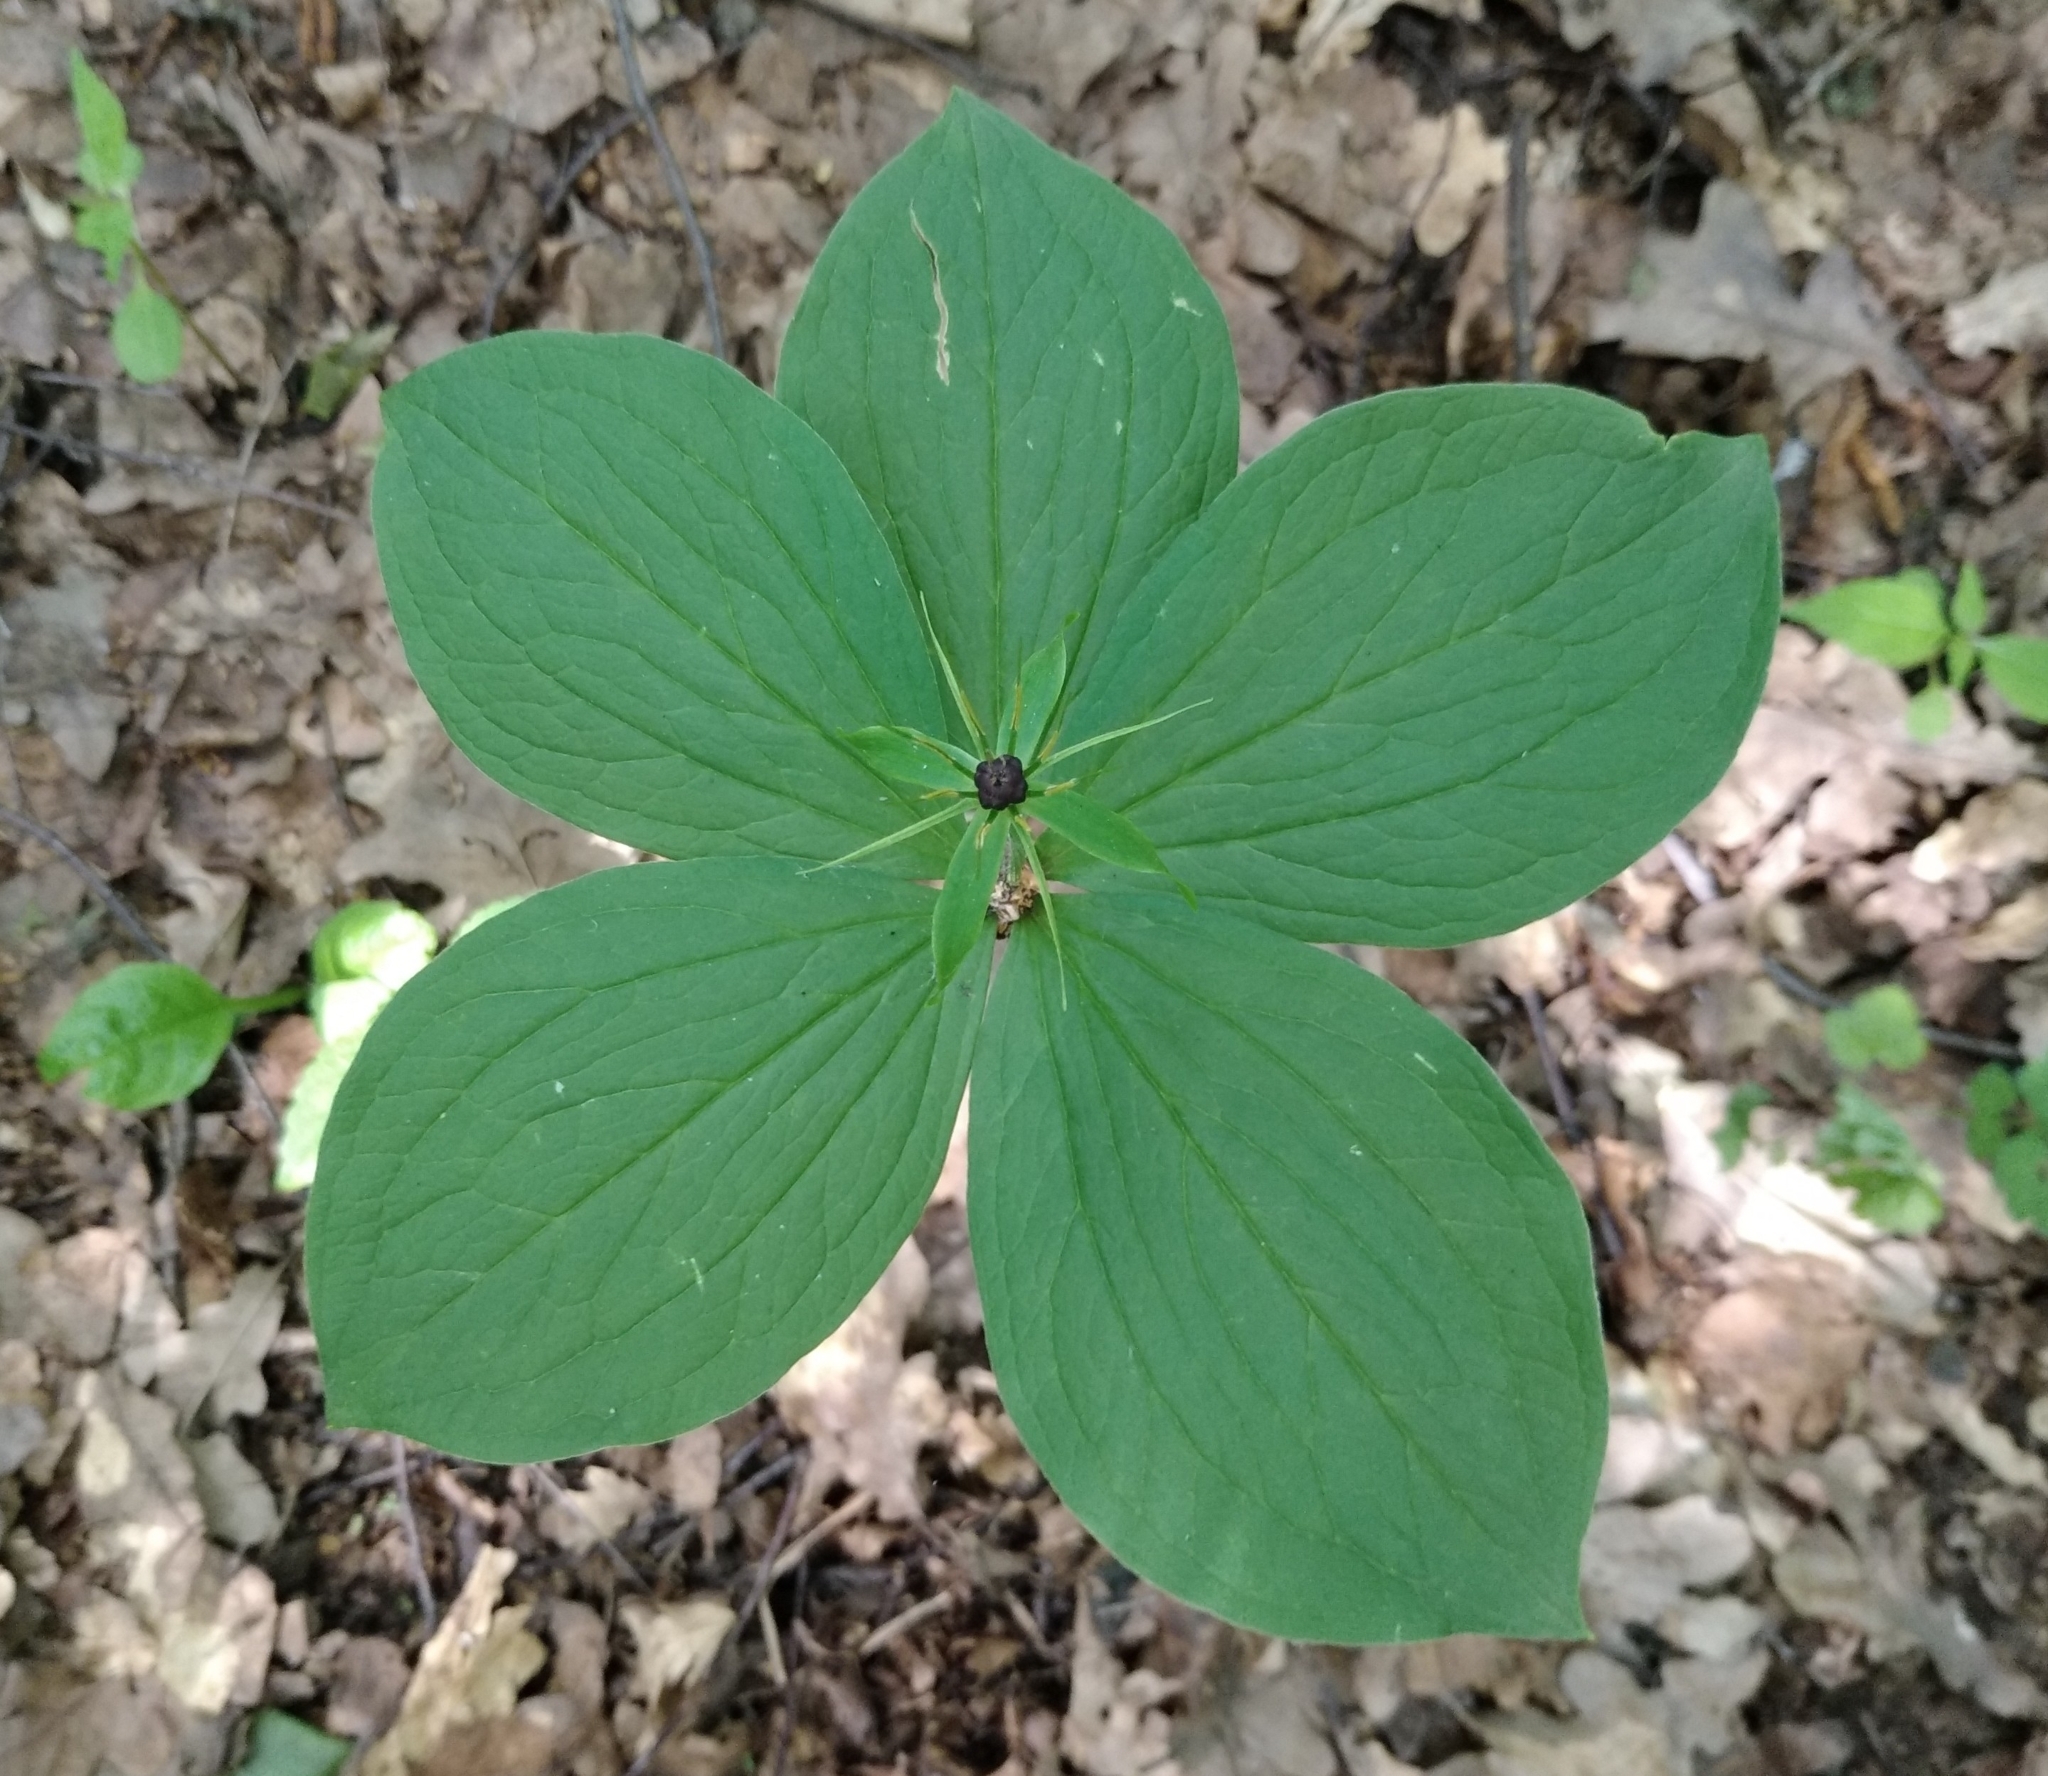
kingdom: Plantae
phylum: Tracheophyta
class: Liliopsida
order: Liliales
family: Melanthiaceae
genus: Paris
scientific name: Paris quadrifolia
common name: Herb-paris
